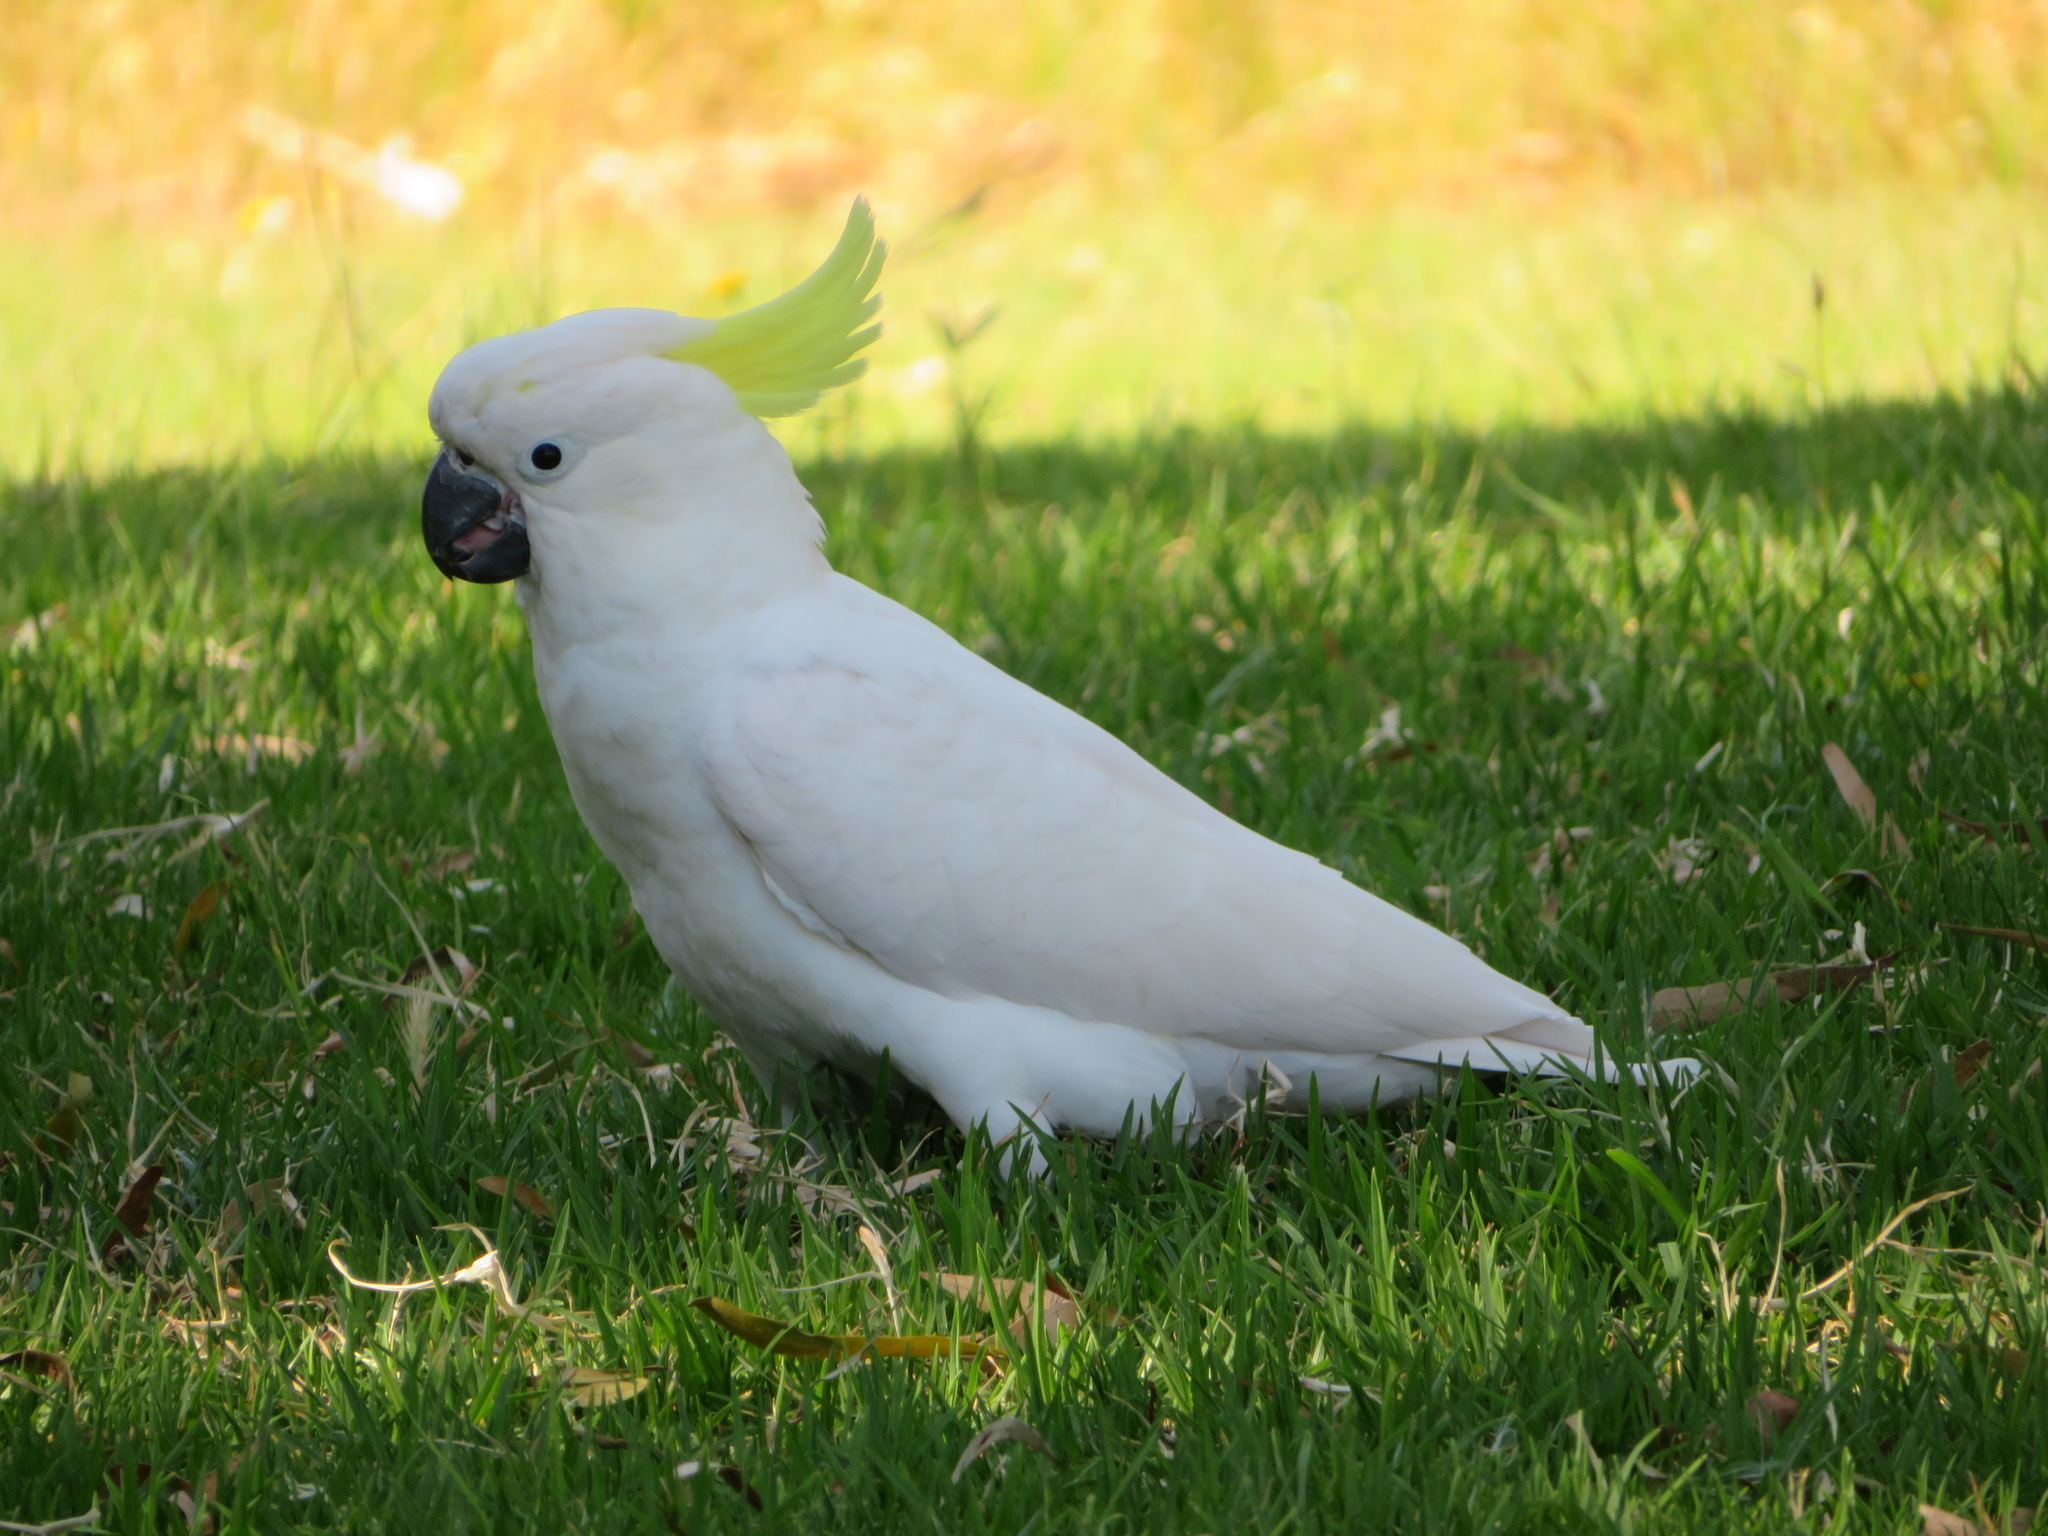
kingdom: Animalia
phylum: Chordata
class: Aves
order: Psittaciformes
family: Psittacidae
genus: Cacatua
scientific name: Cacatua galerita
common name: Sulphur-crested cockatoo
